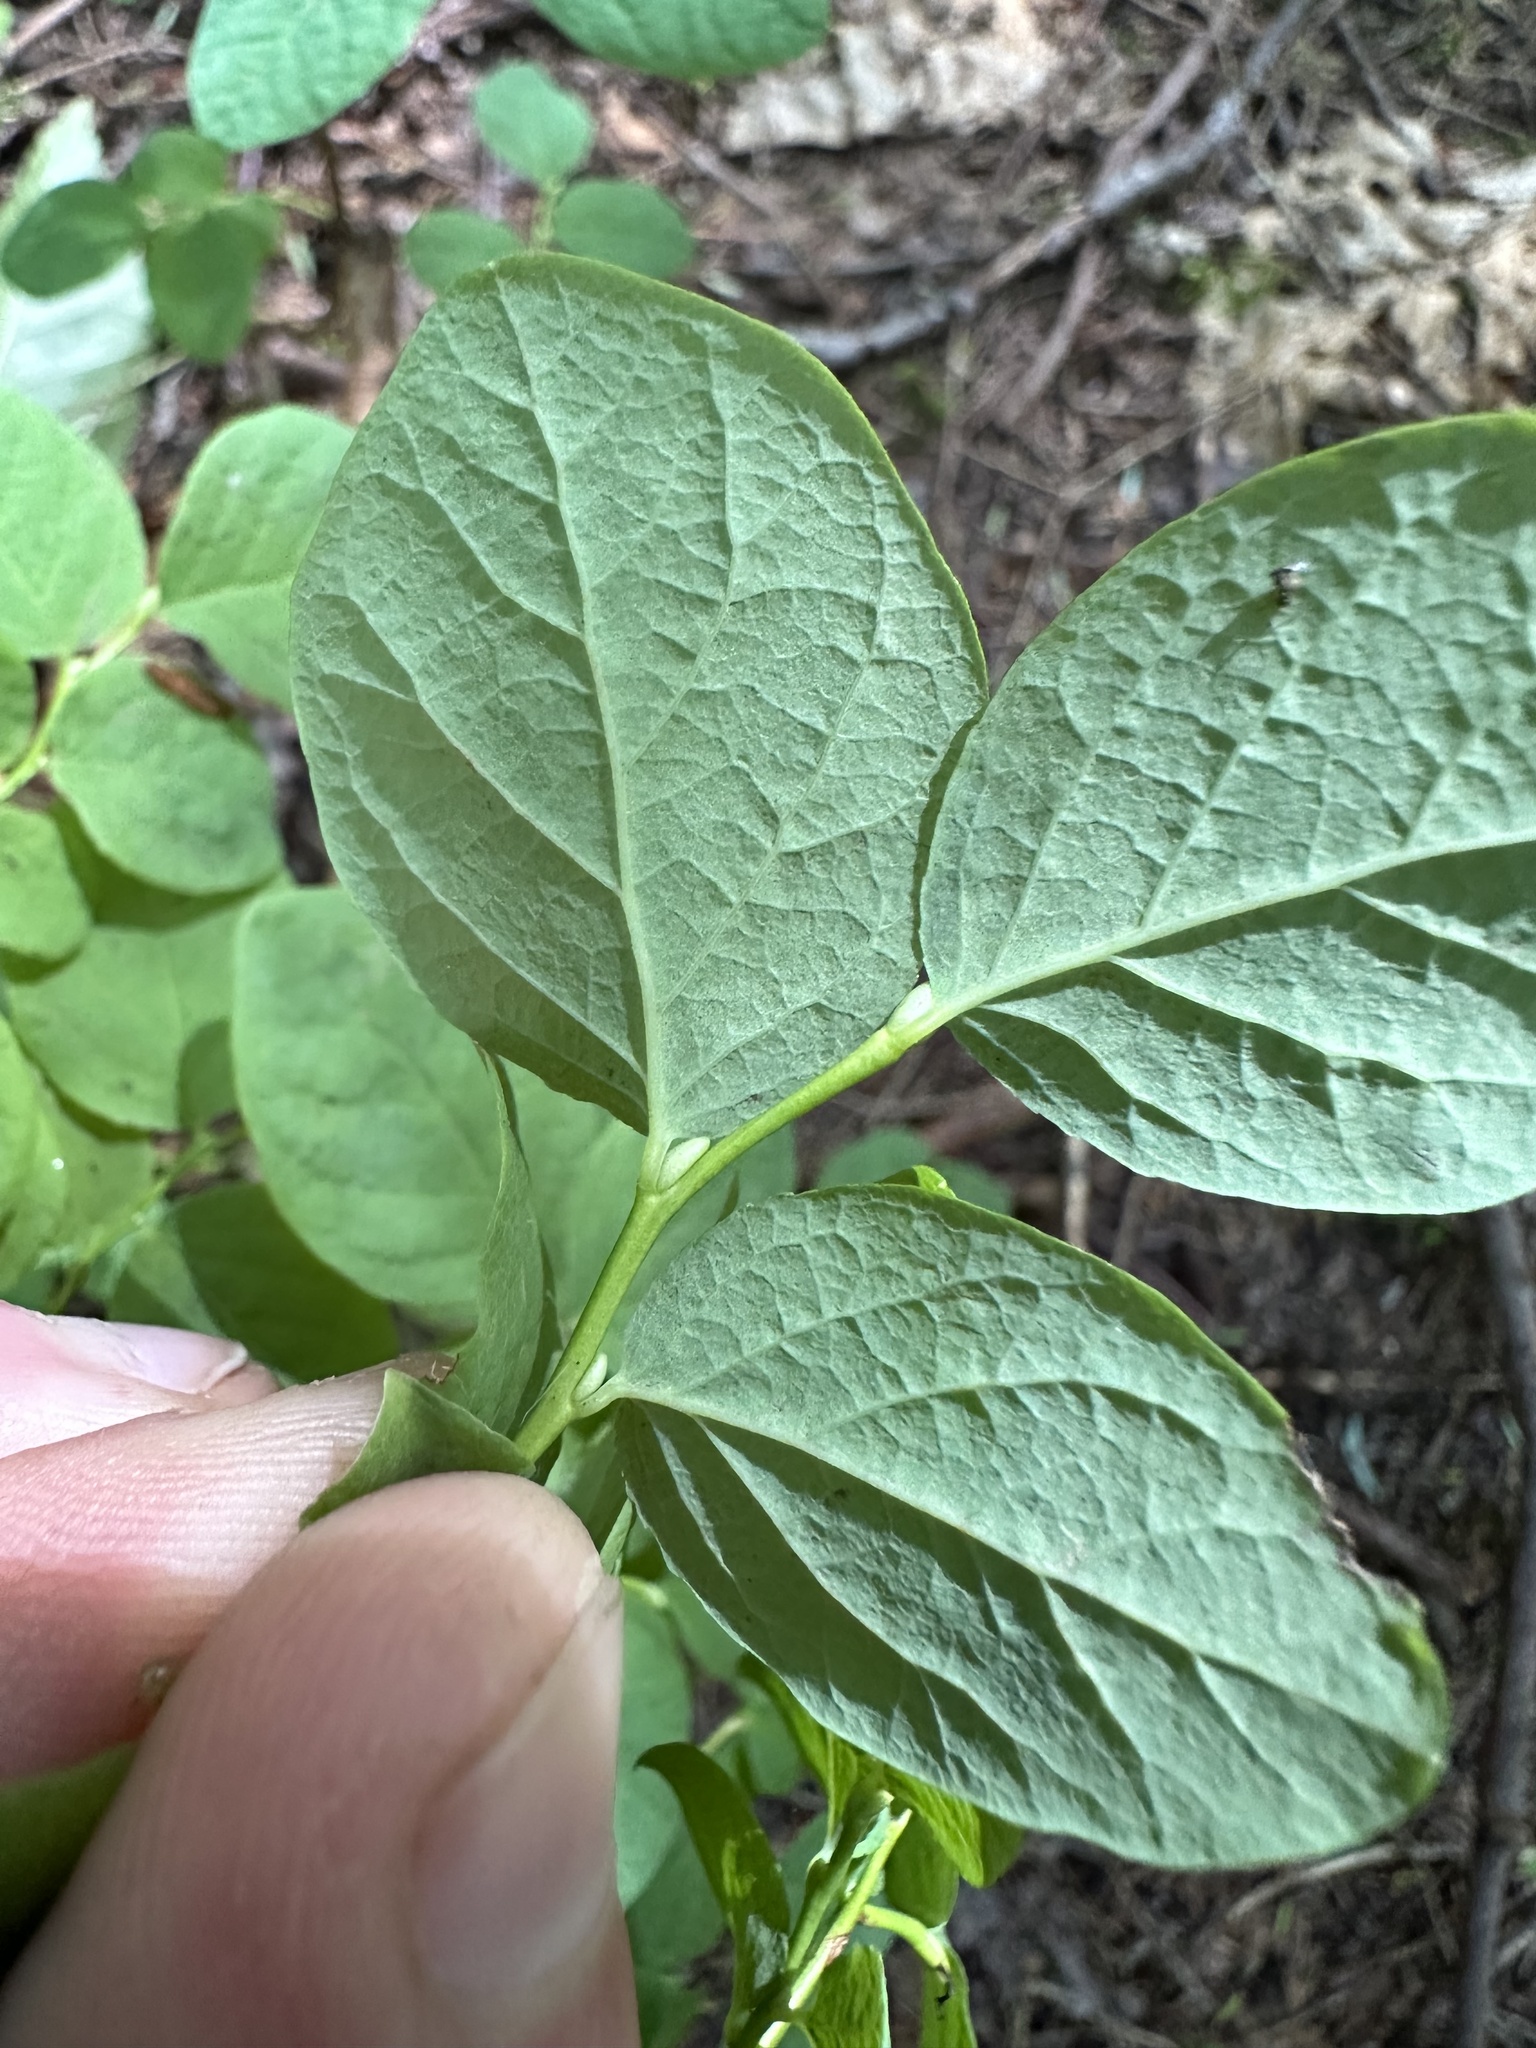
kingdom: Plantae
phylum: Tracheophyta
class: Magnoliopsida
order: Ericales
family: Ericaceae
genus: Vaccinium
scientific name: Vaccinium ovalifolium
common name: Early blueberry
